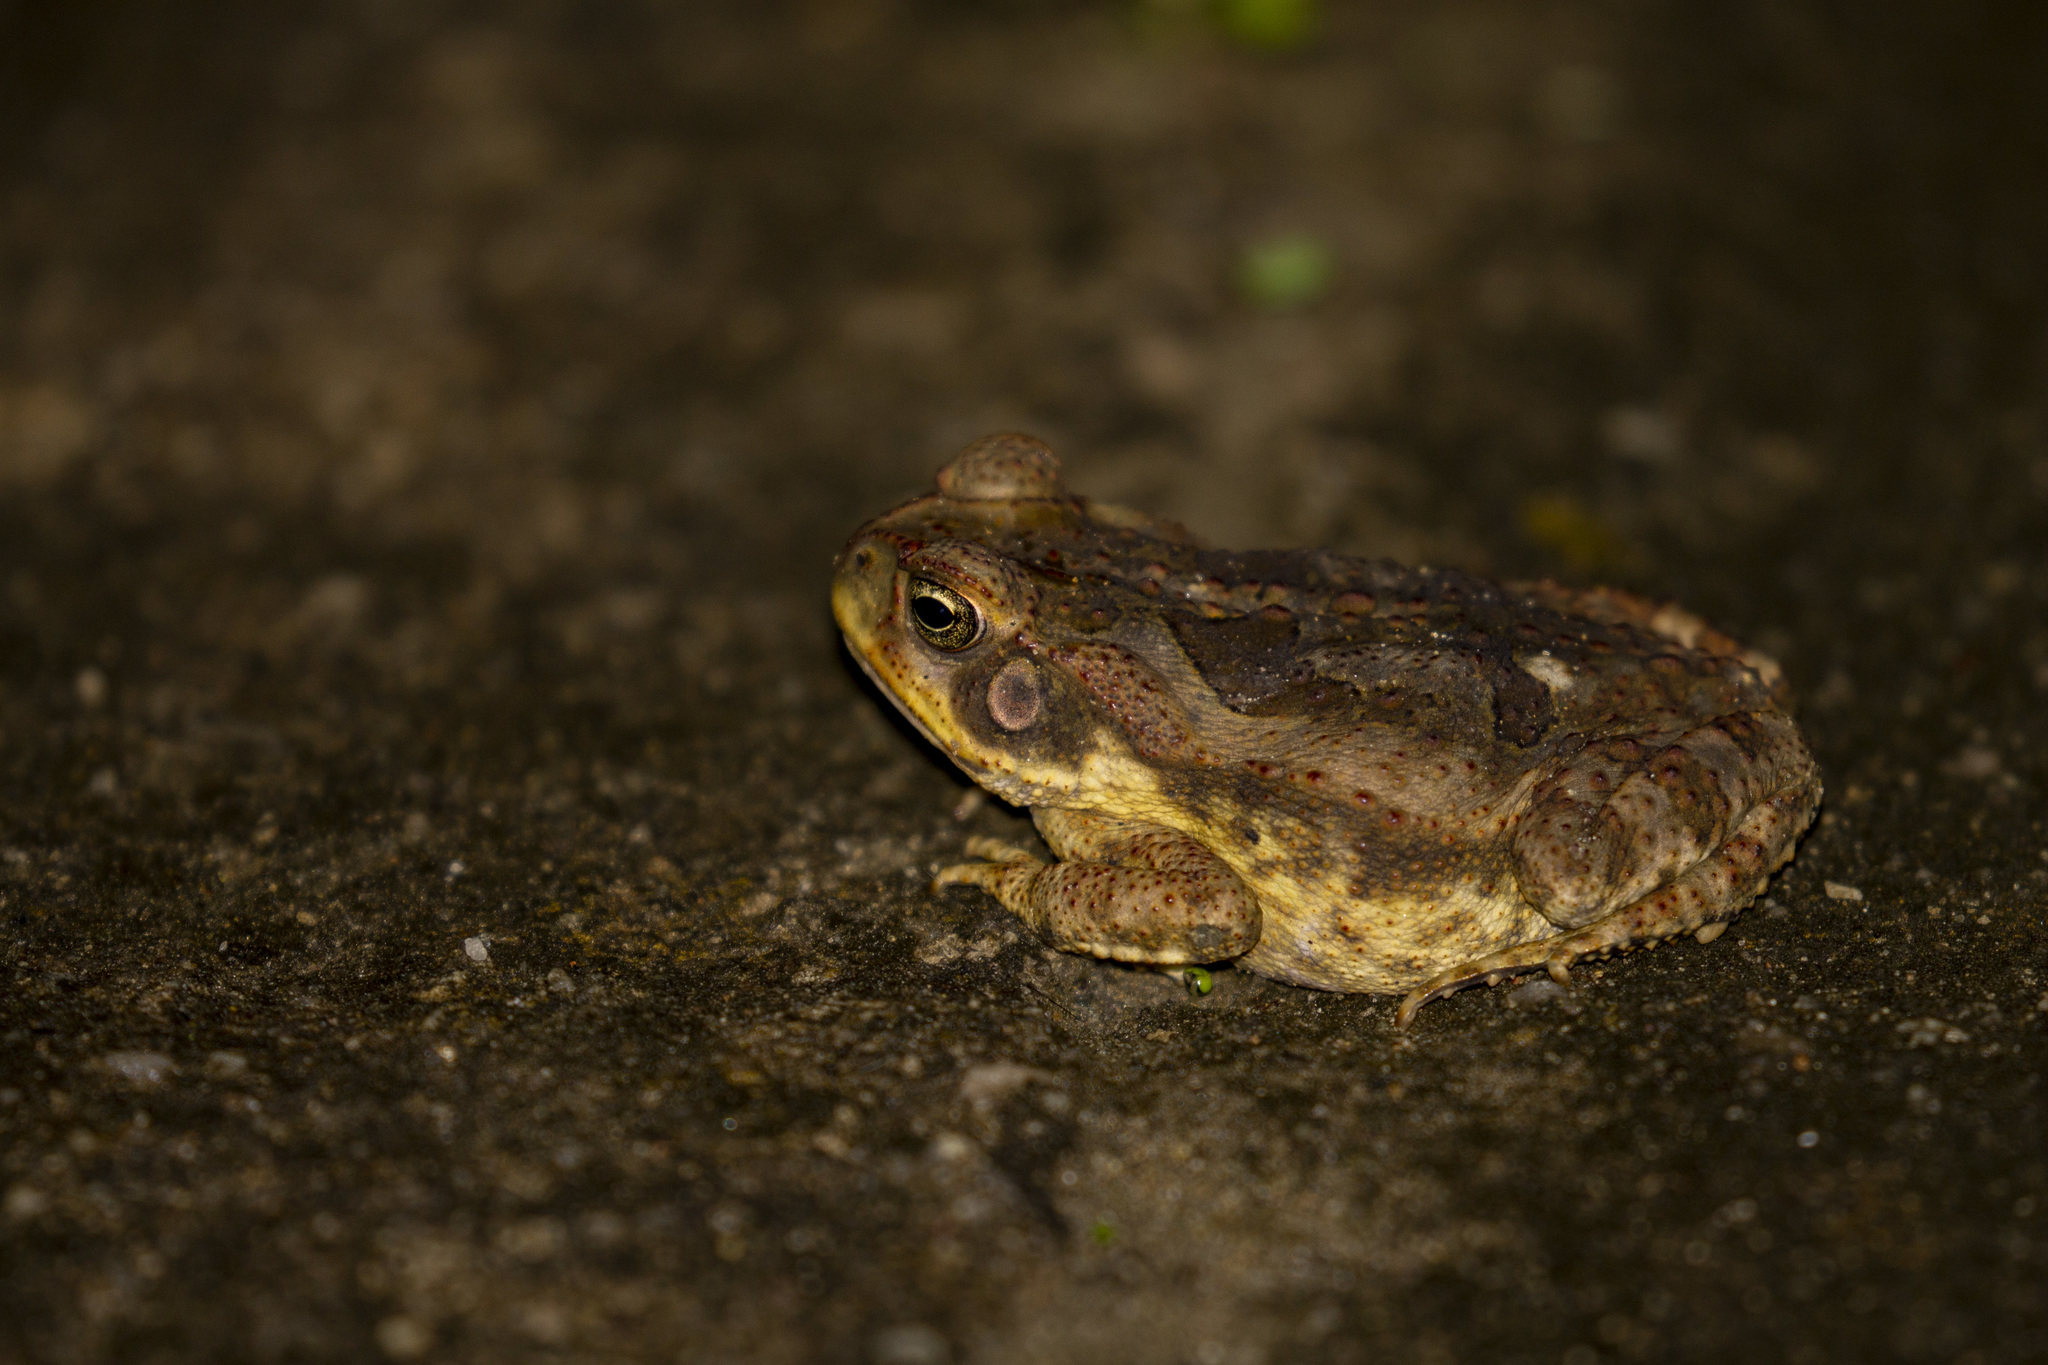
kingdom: Animalia
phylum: Chordata
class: Amphibia
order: Anura
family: Bufonidae
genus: Rhinella
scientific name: Rhinella diptycha
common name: Cope's toad
